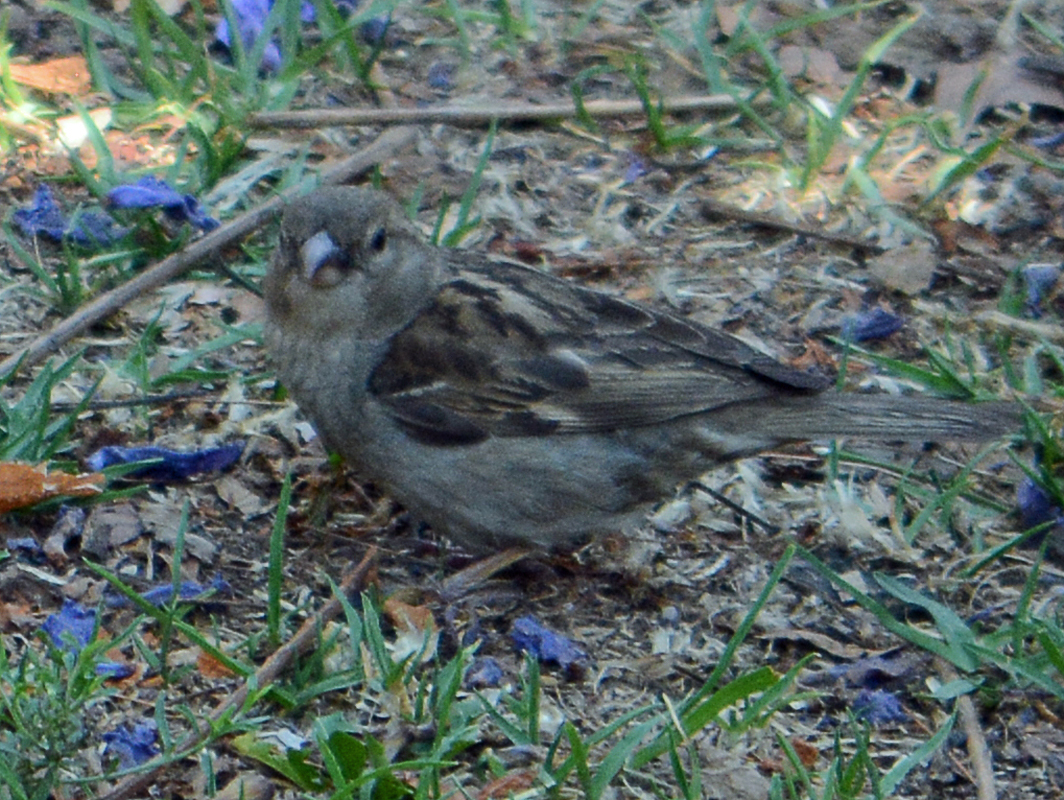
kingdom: Animalia
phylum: Chordata
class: Aves
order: Passeriformes
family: Passeridae
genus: Passer
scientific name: Passer domesticus
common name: House sparrow
